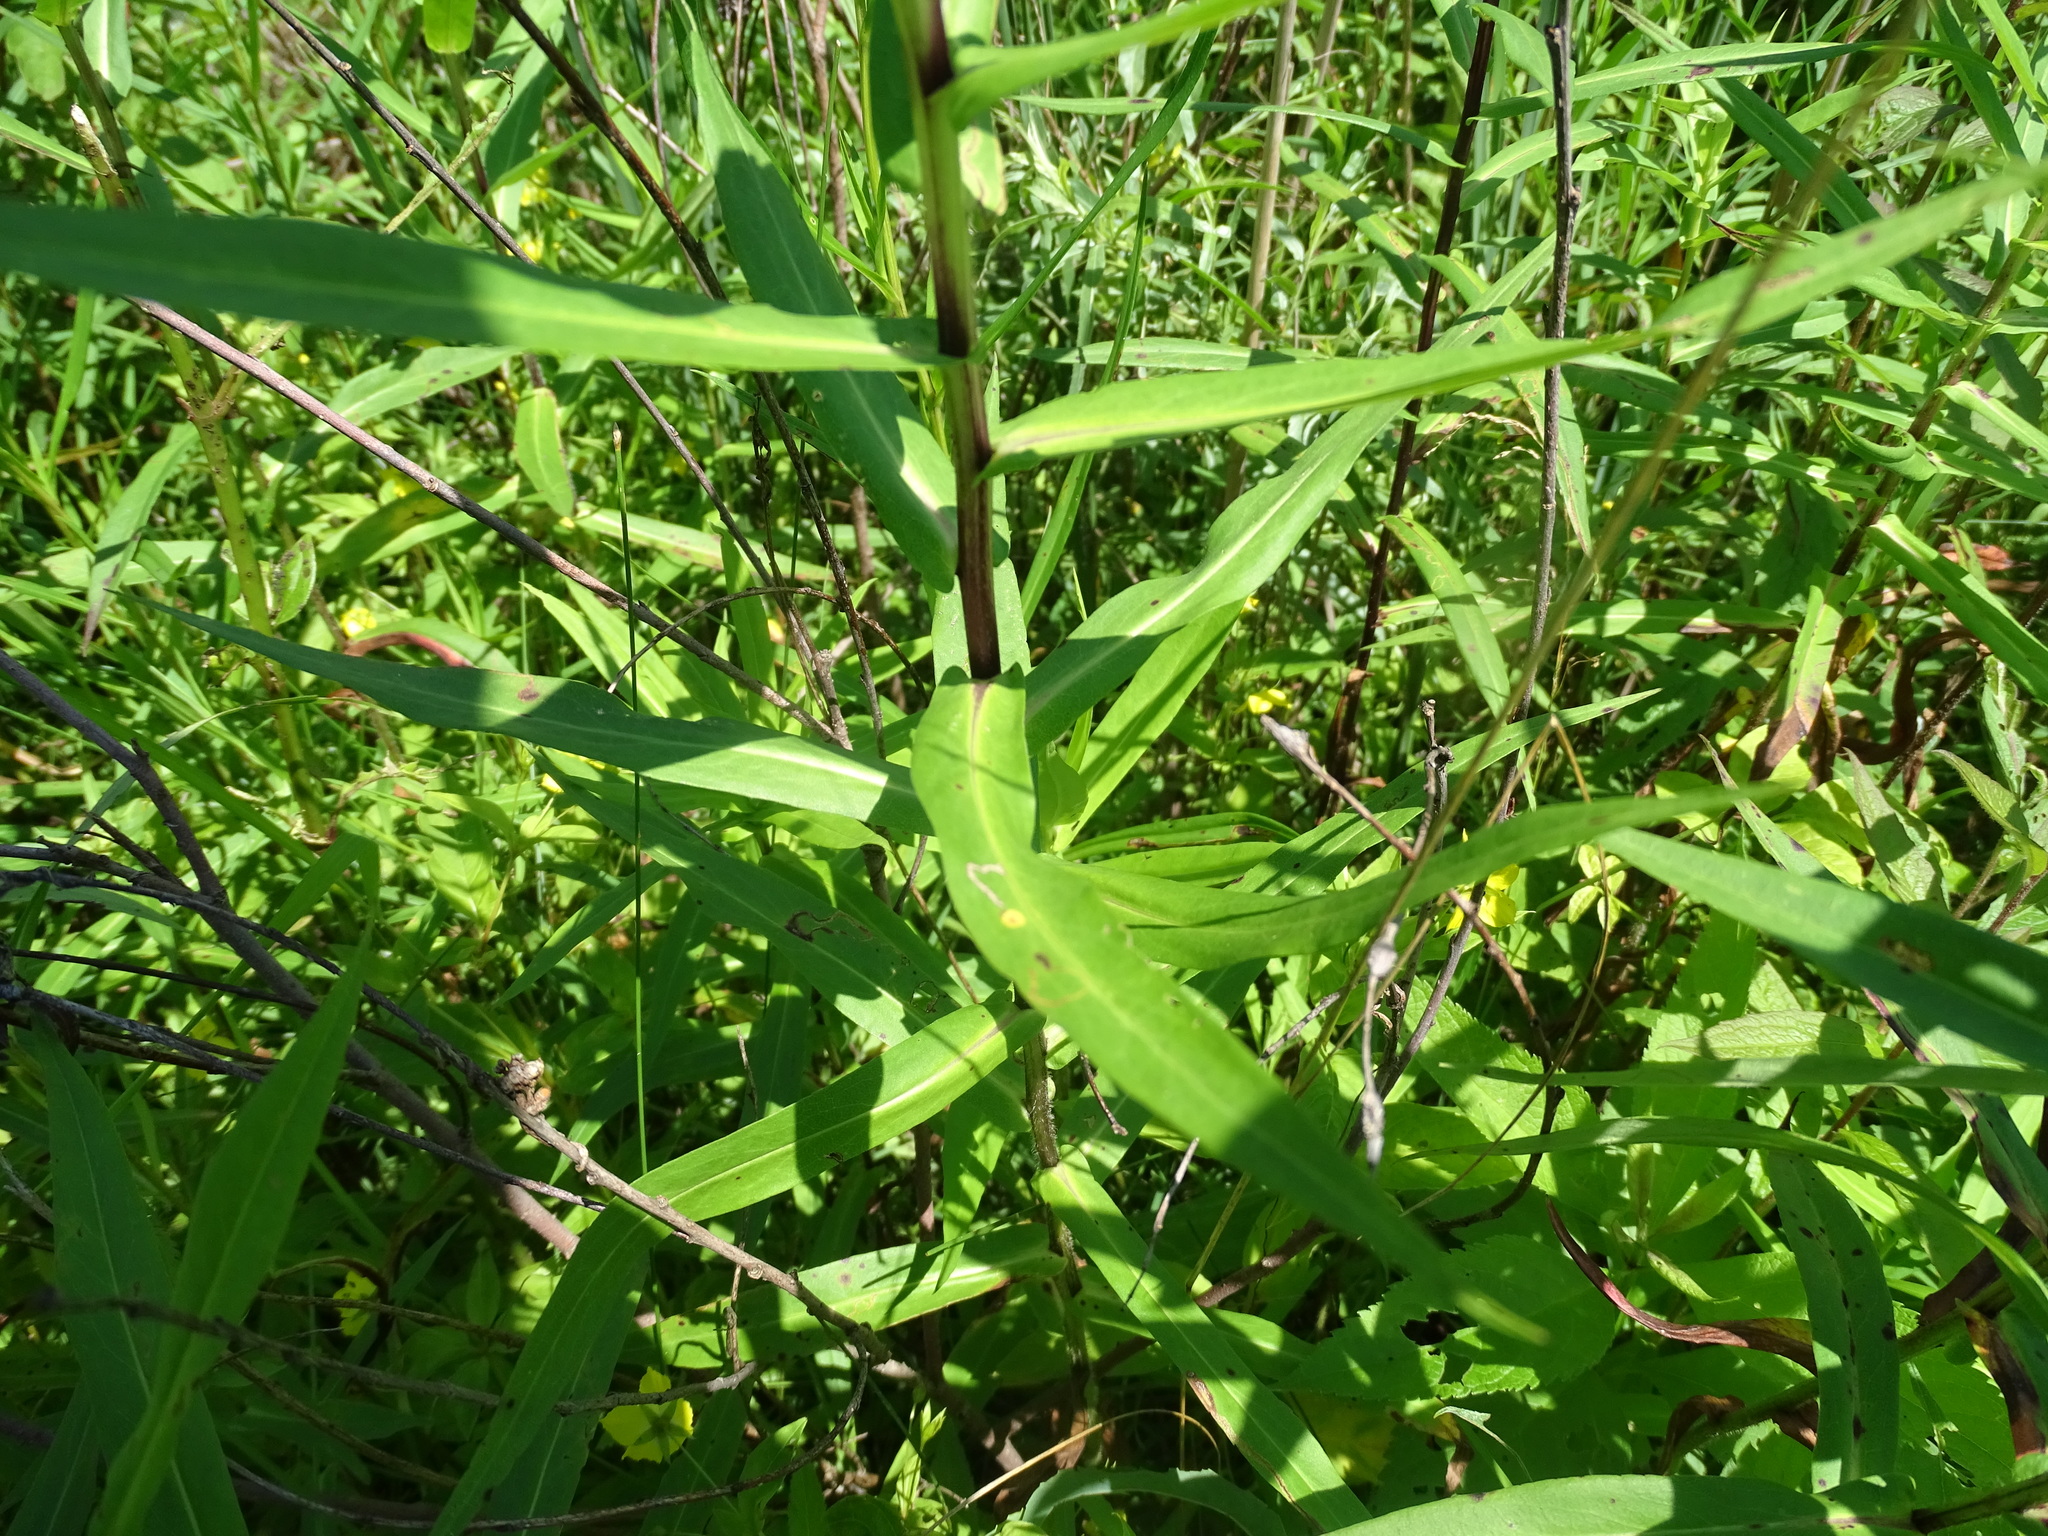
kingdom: Plantae
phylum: Tracheophyta
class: Magnoliopsida
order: Asterales
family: Asteraceae
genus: Symphyotrichum
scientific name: Symphyotrichum firmum
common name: Shining aster
